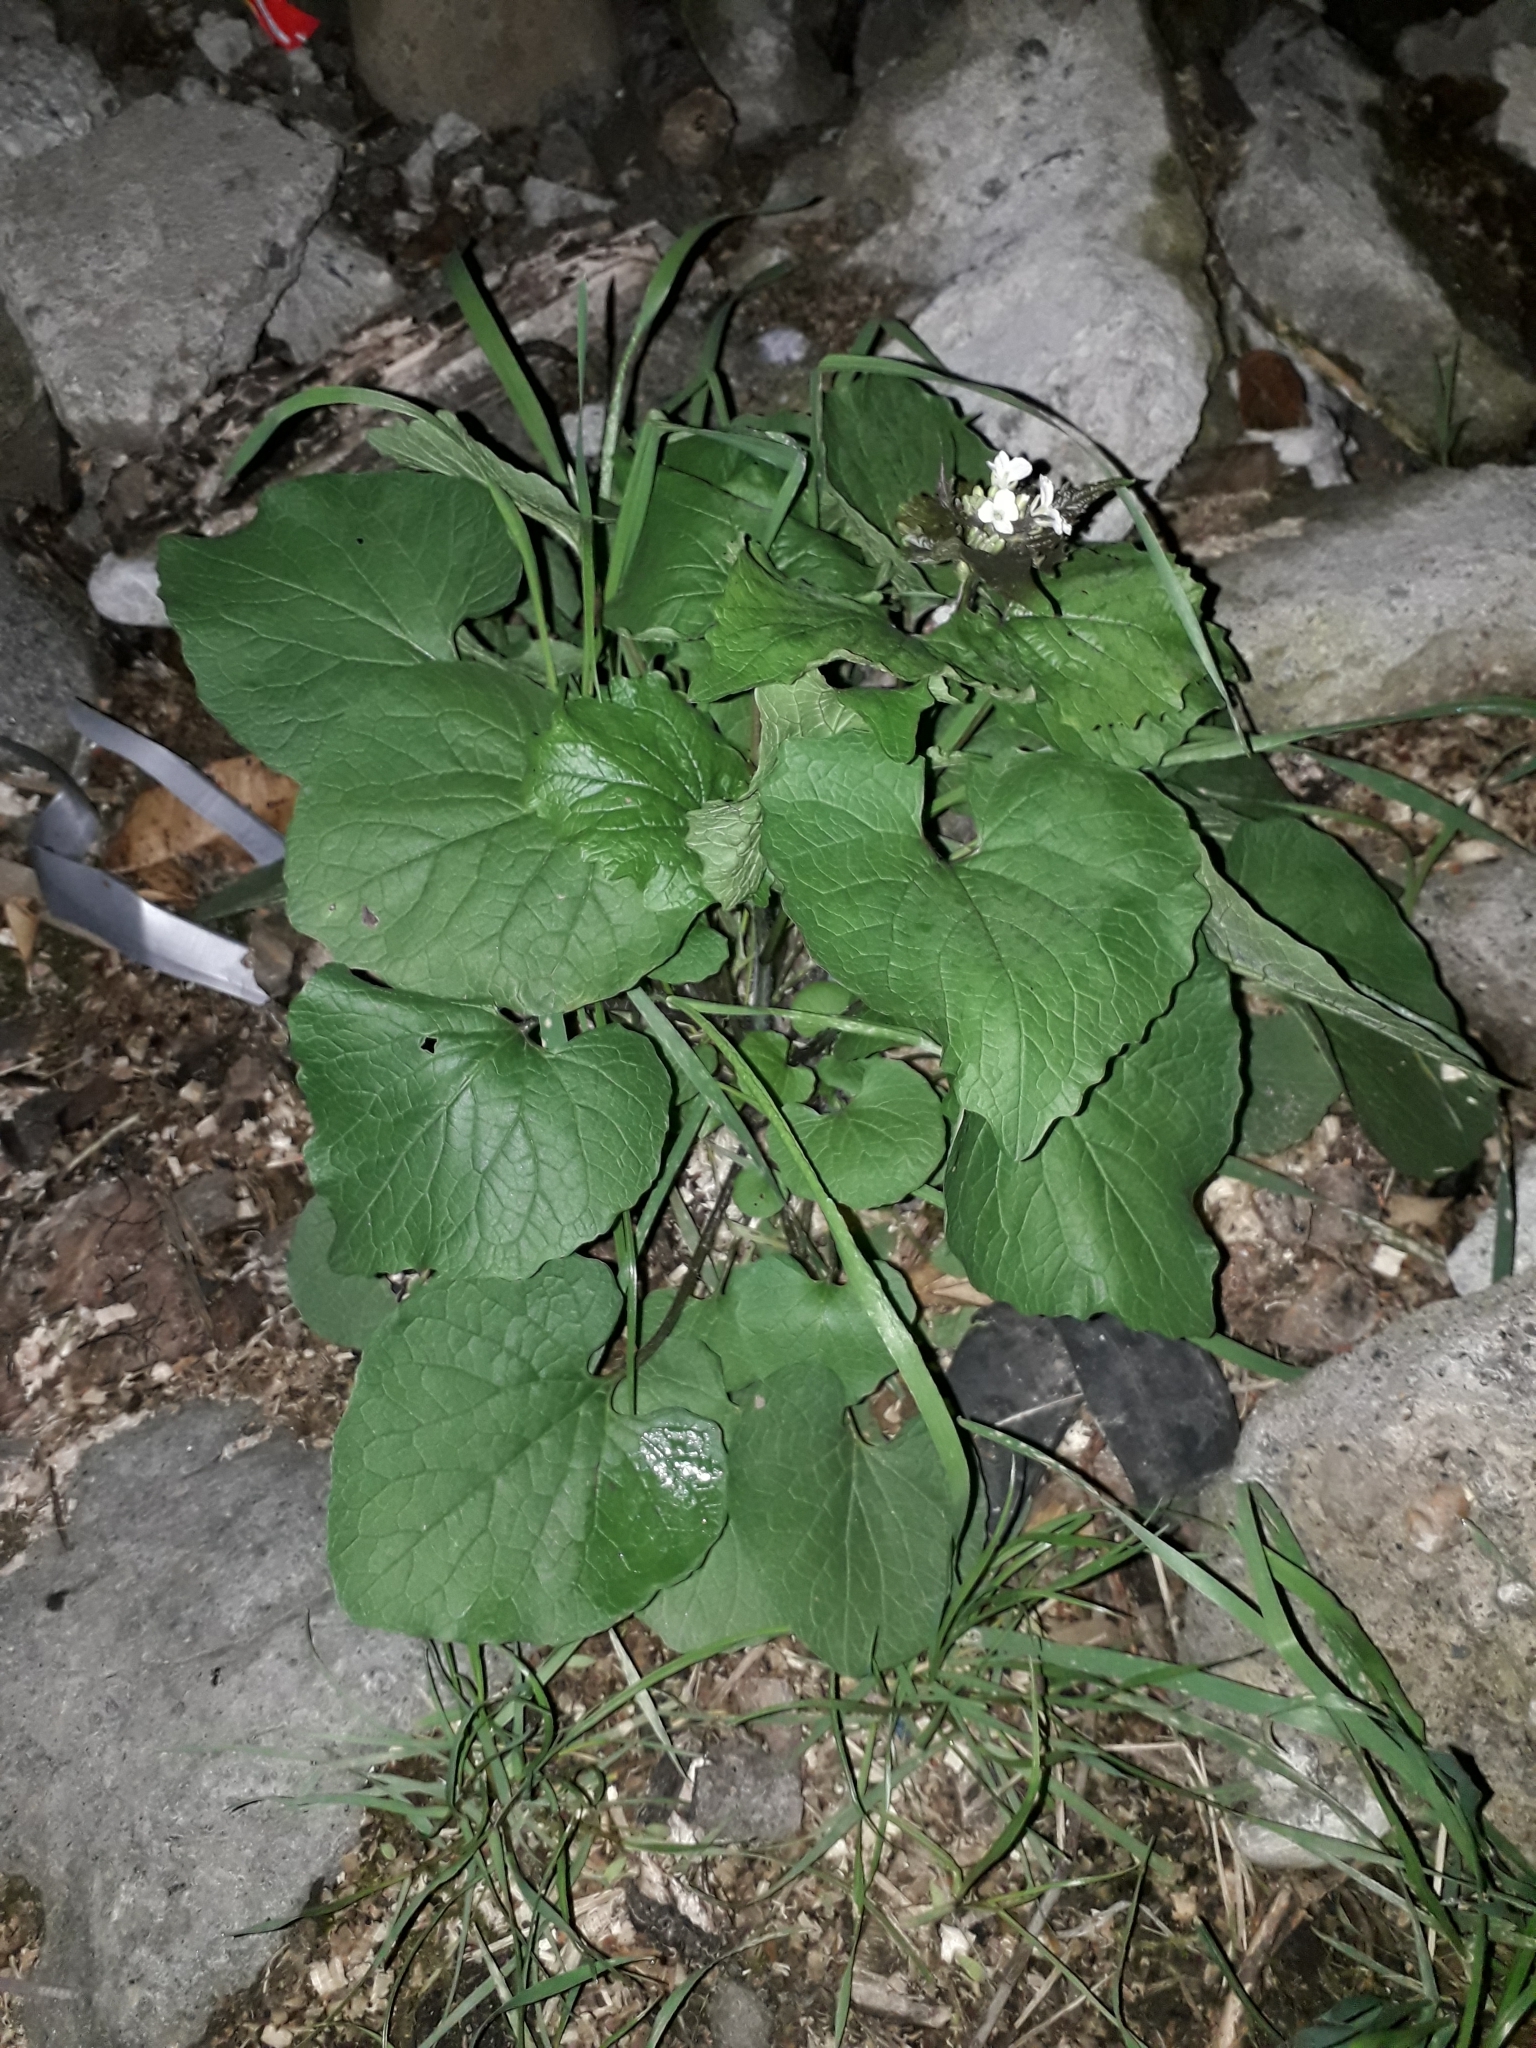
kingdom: Plantae
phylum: Tracheophyta
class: Magnoliopsida
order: Brassicales
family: Brassicaceae
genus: Alliaria
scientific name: Alliaria petiolata
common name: Garlic mustard
